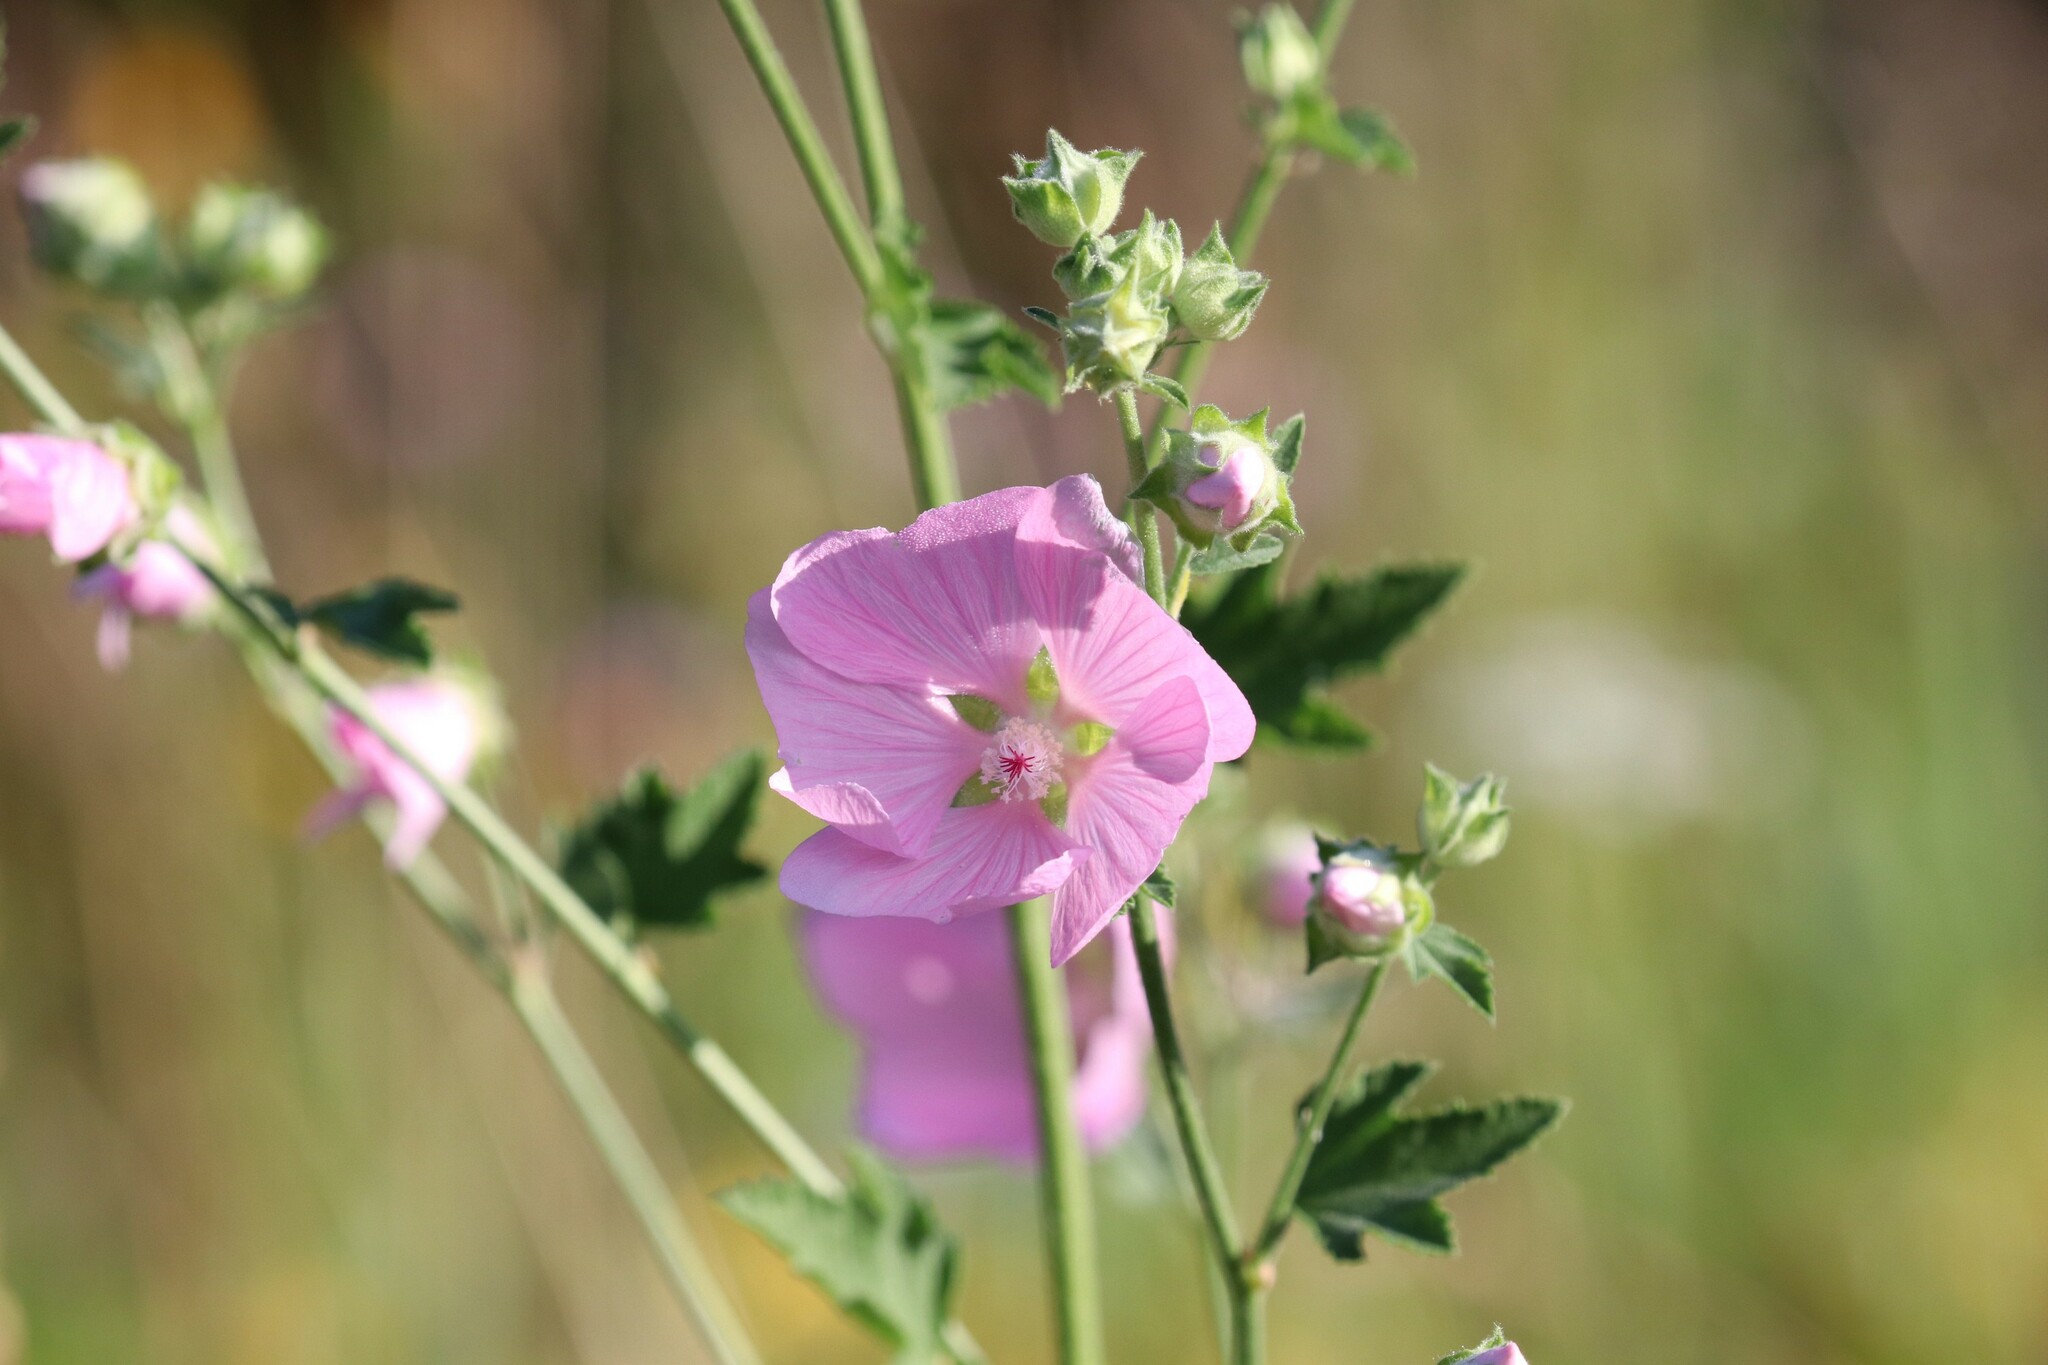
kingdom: Plantae
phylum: Tracheophyta
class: Magnoliopsida
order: Malvales
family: Malvaceae
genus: Malva
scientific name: Malva thuringiaca
